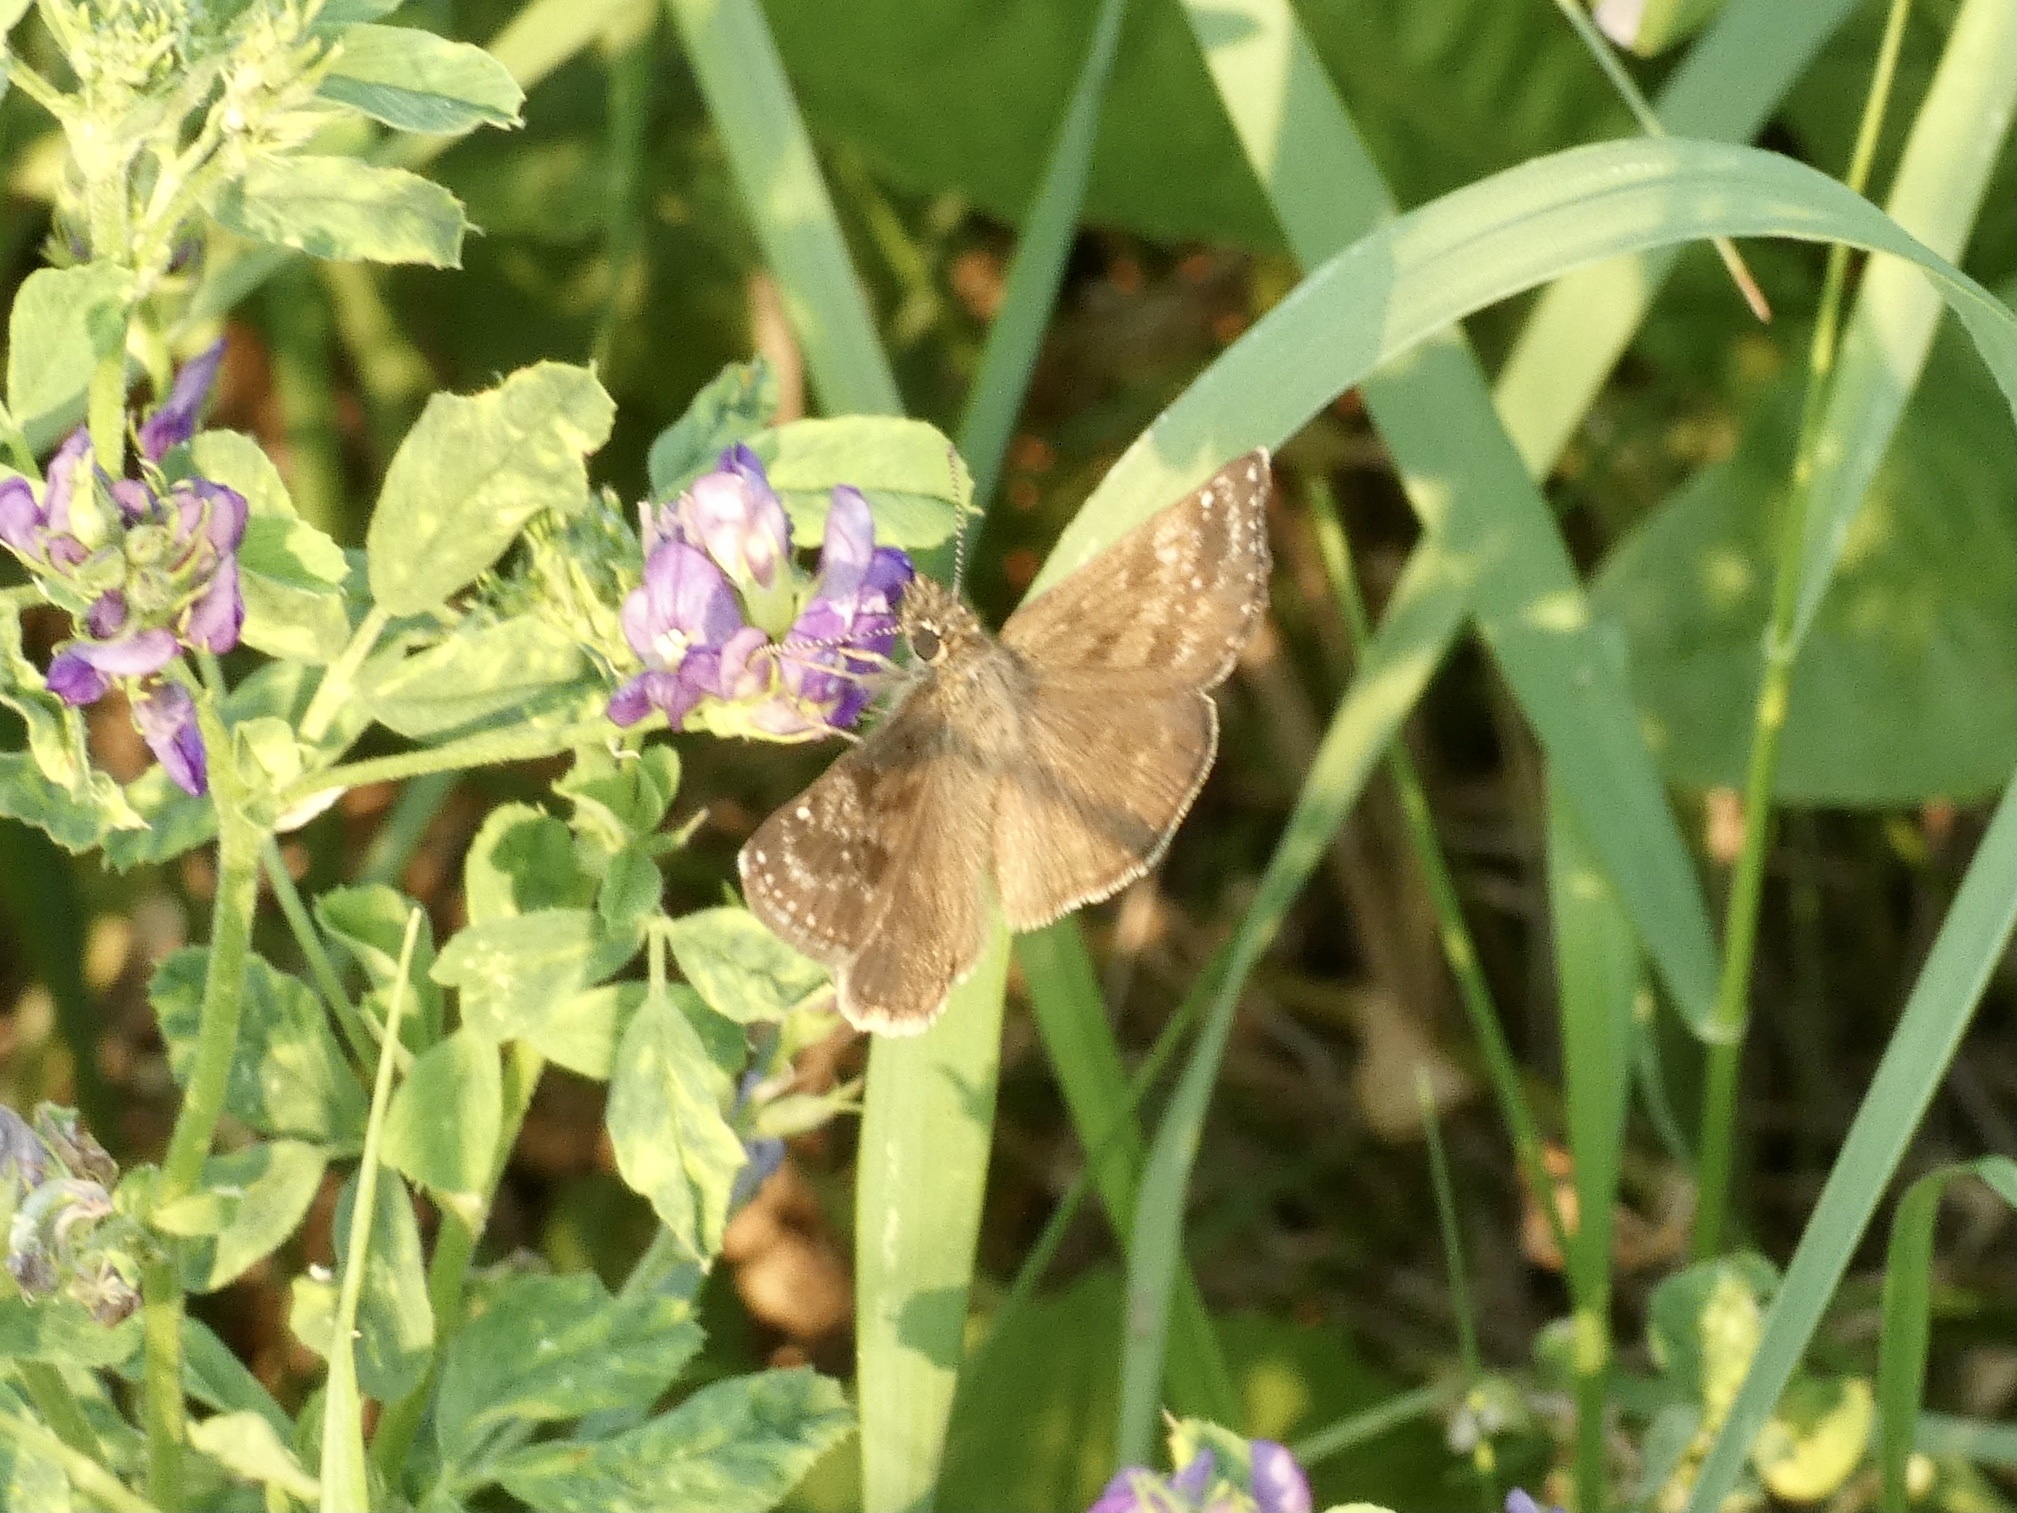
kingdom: Animalia
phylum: Arthropoda
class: Insecta
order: Lepidoptera
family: Hesperiidae
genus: Erynnis
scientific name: Erynnis tages
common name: Dingy skipper
